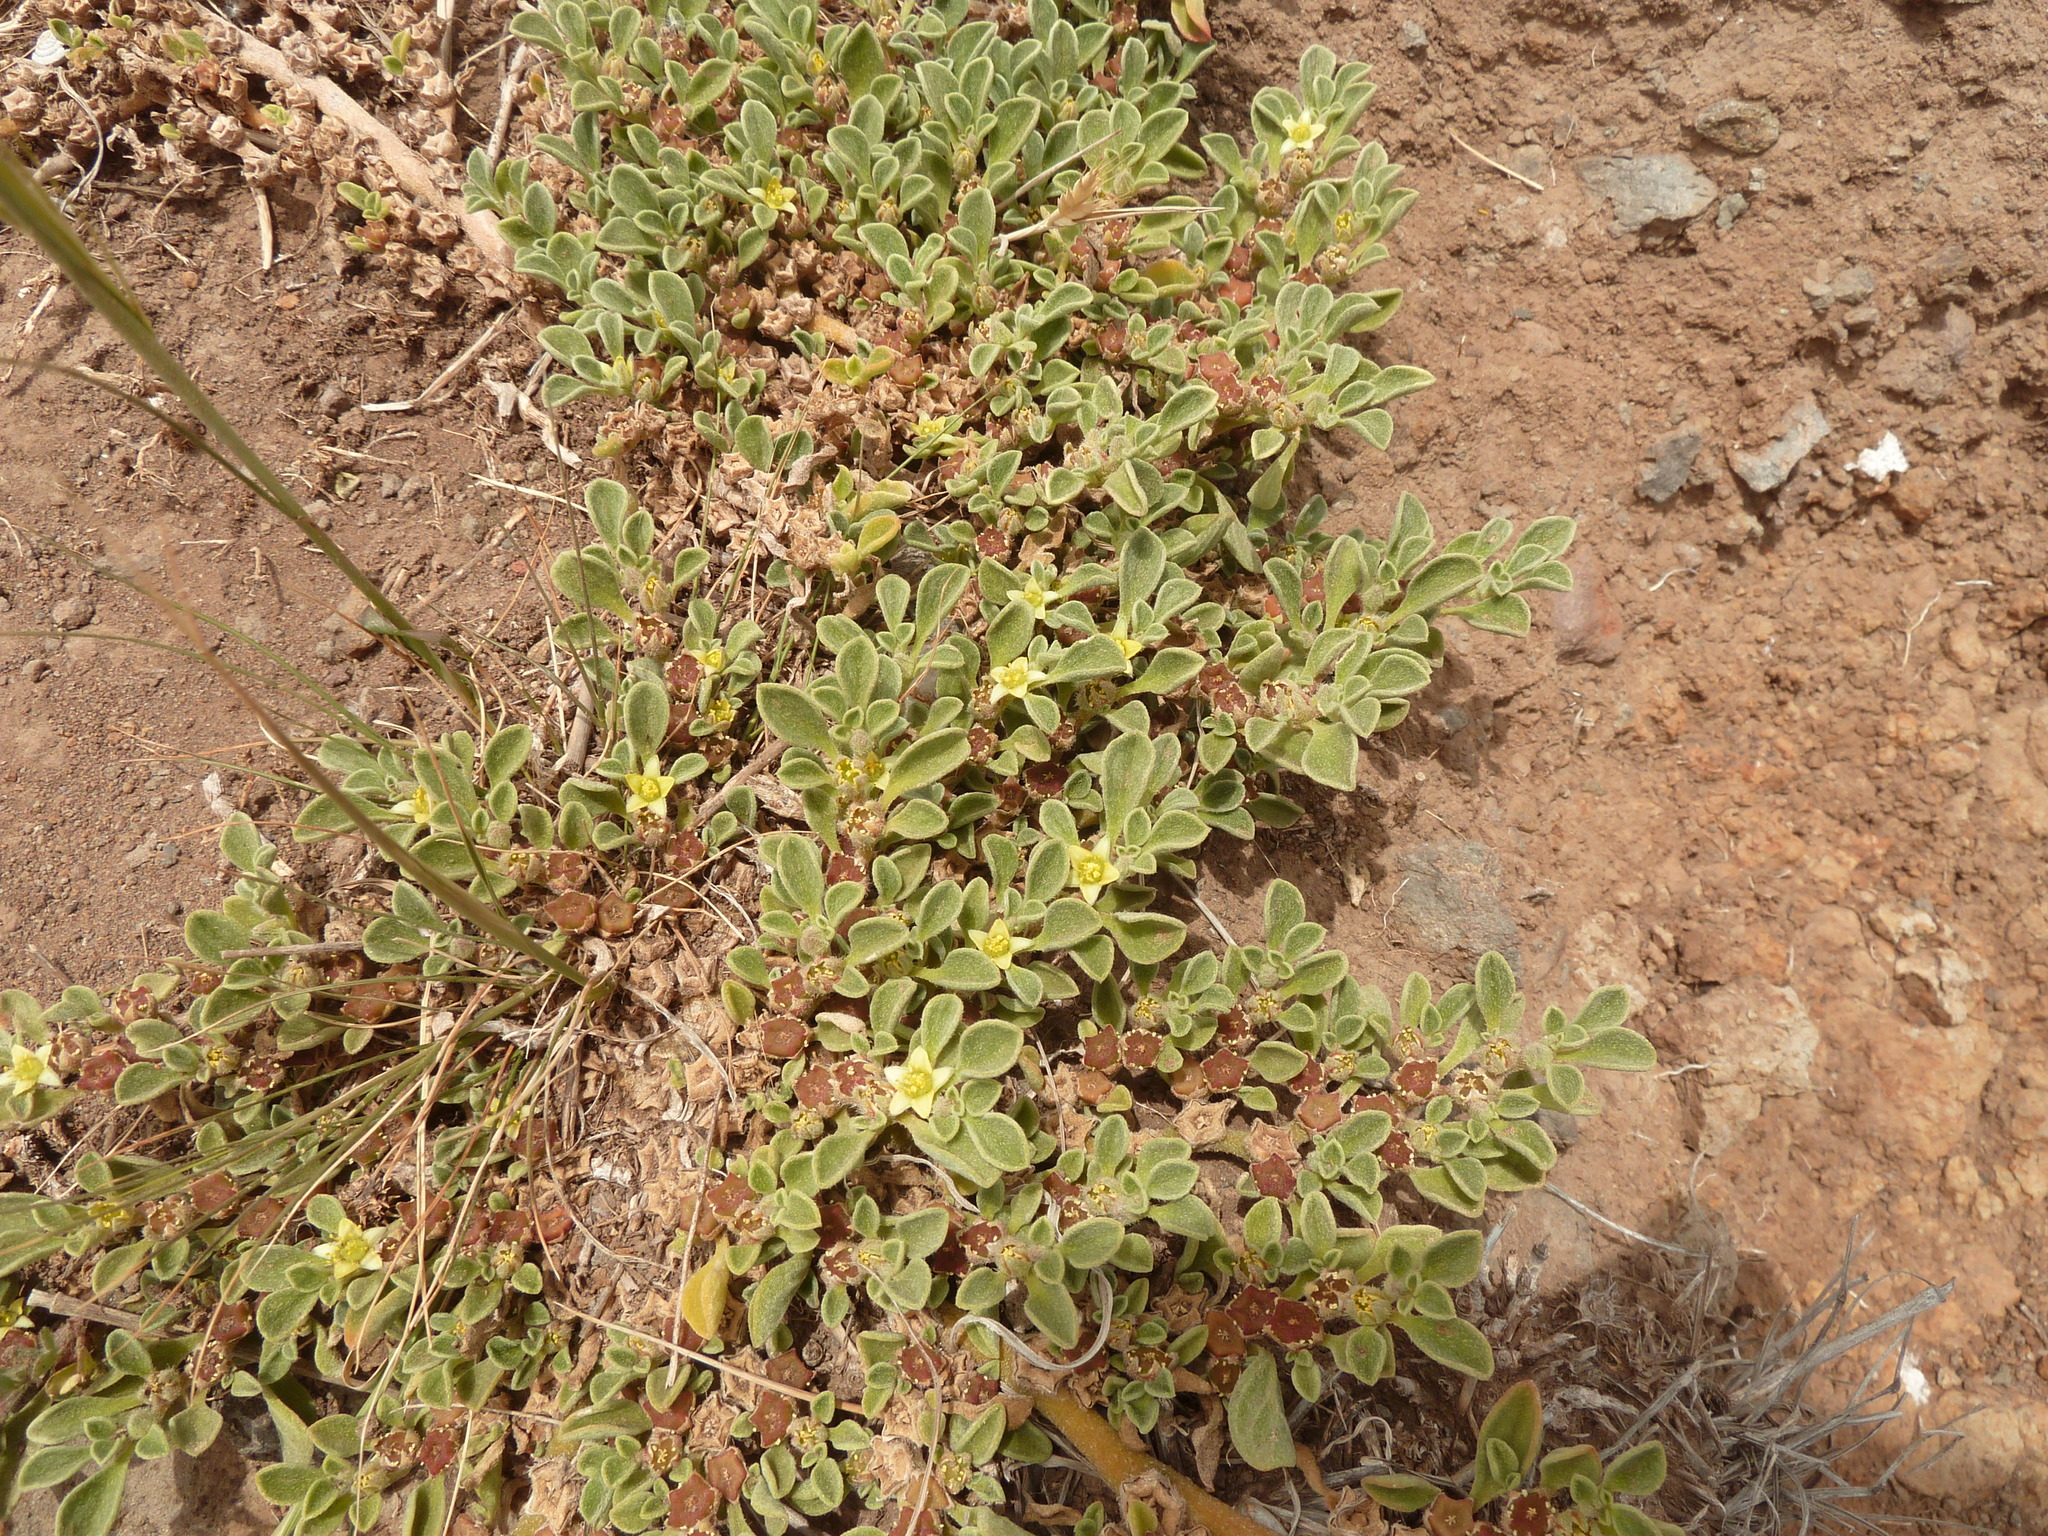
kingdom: Plantae
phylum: Tracheophyta
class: Magnoliopsida
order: Caryophyllales
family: Aizoaceae
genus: Aizoon
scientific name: Aizoon canariense
